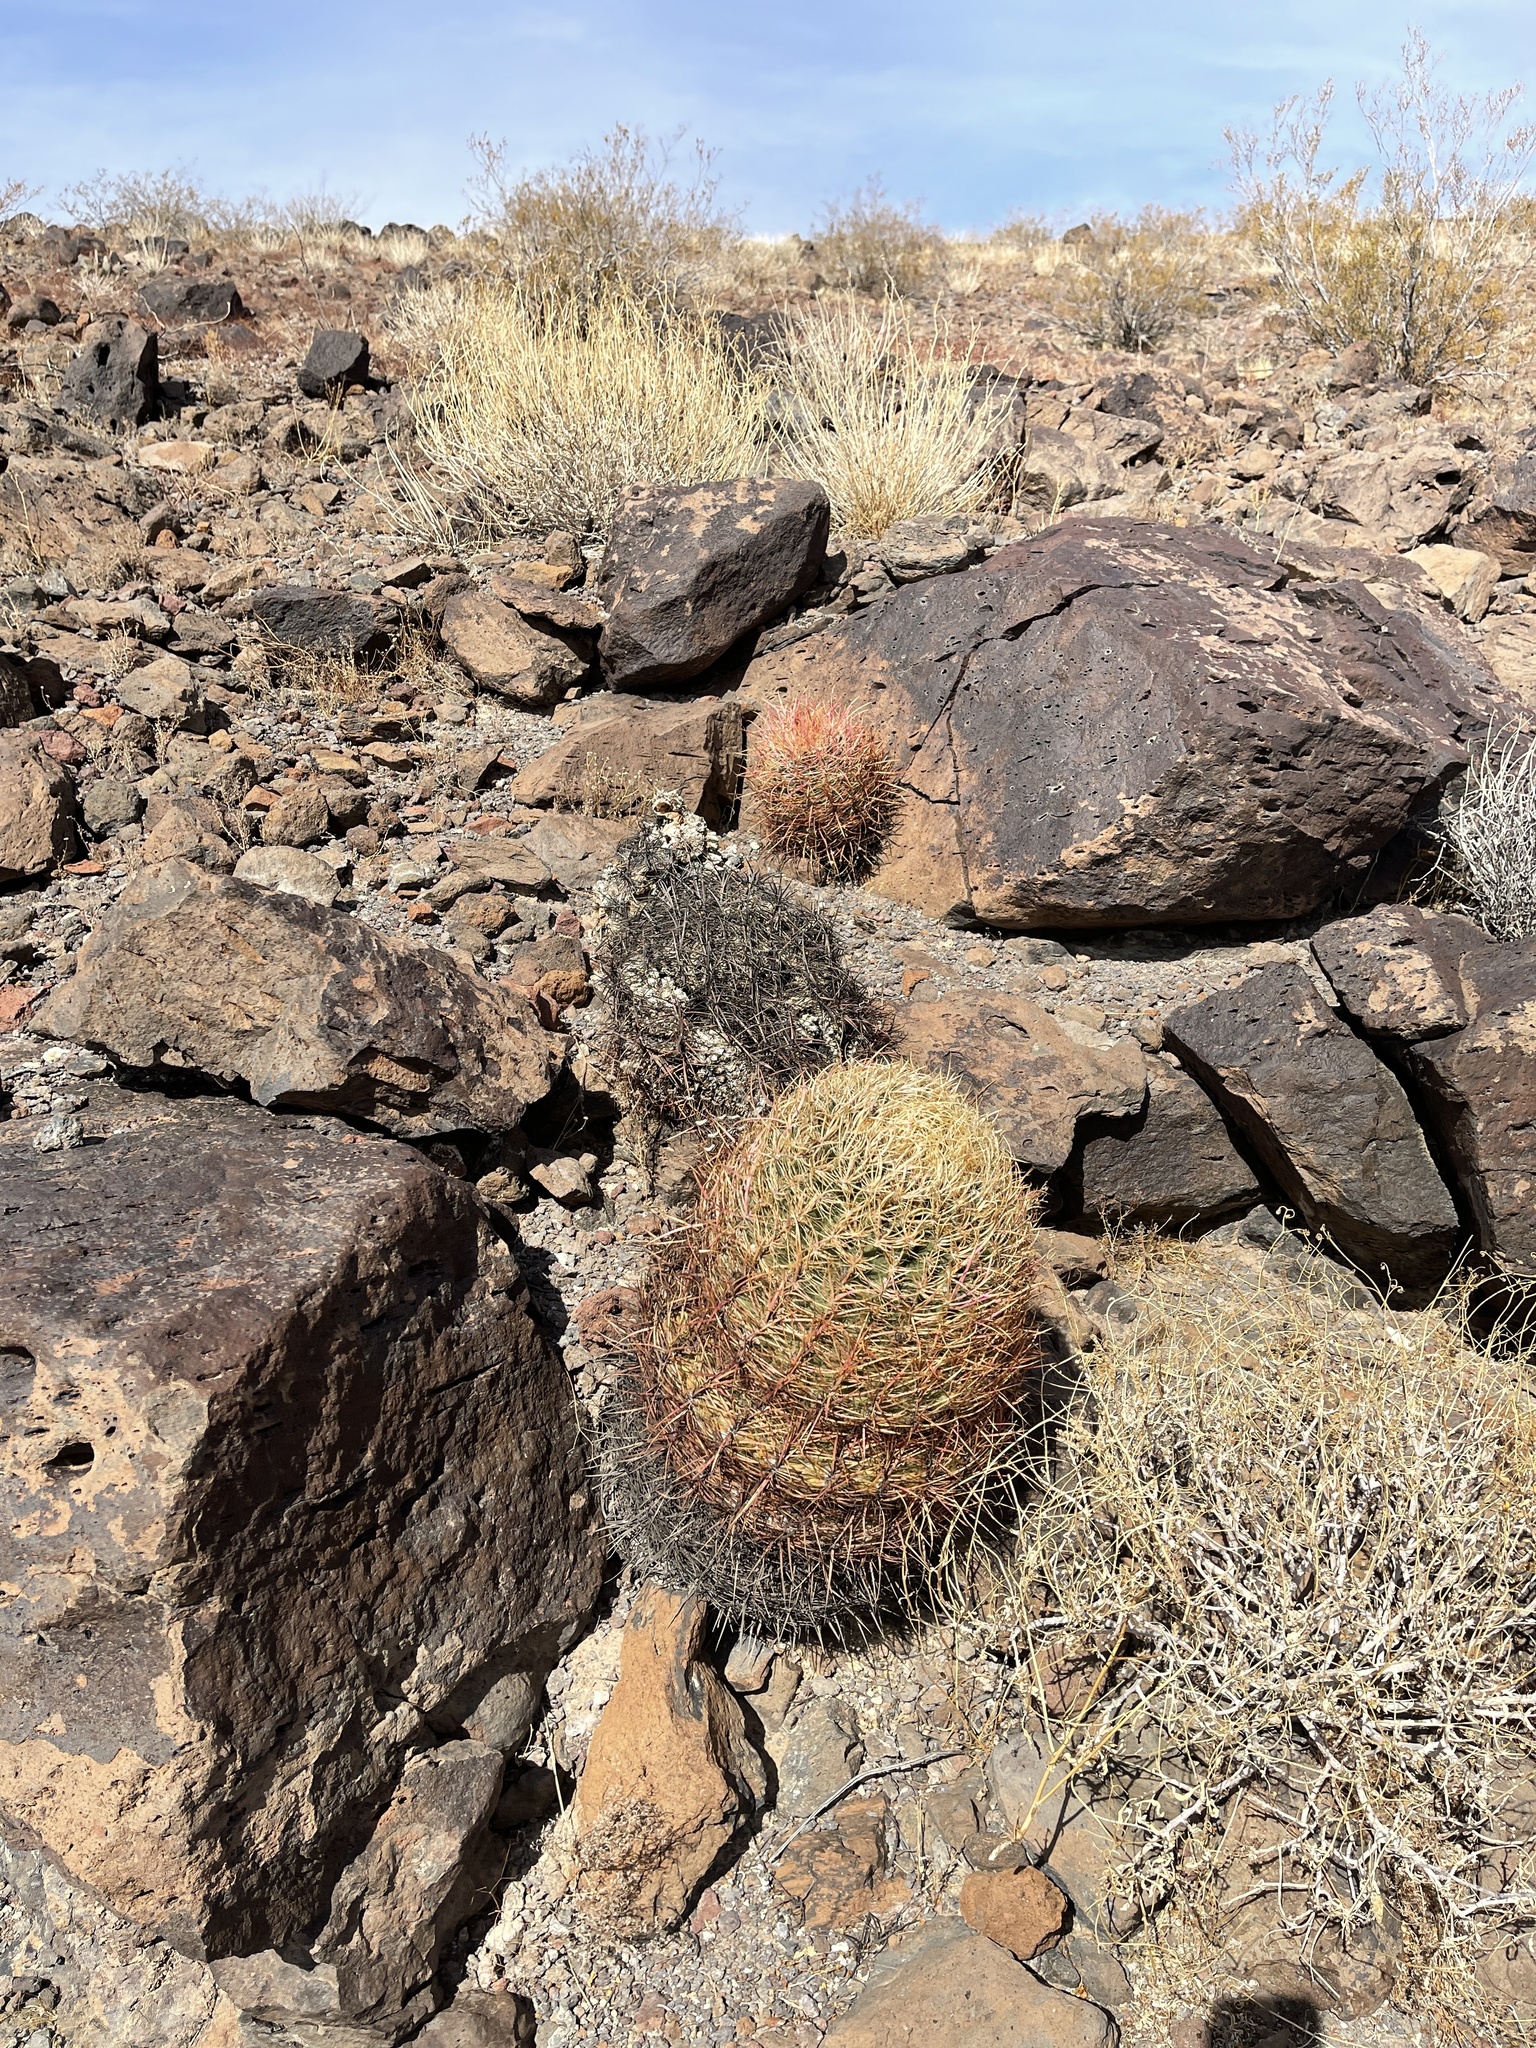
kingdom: Plantae
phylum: Tracheophyta
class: Magnoliopsida
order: Caryophyllales
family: Cactaceae
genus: Ferocactus
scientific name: Ferocactus cylindraceus
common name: California barrel cactus
